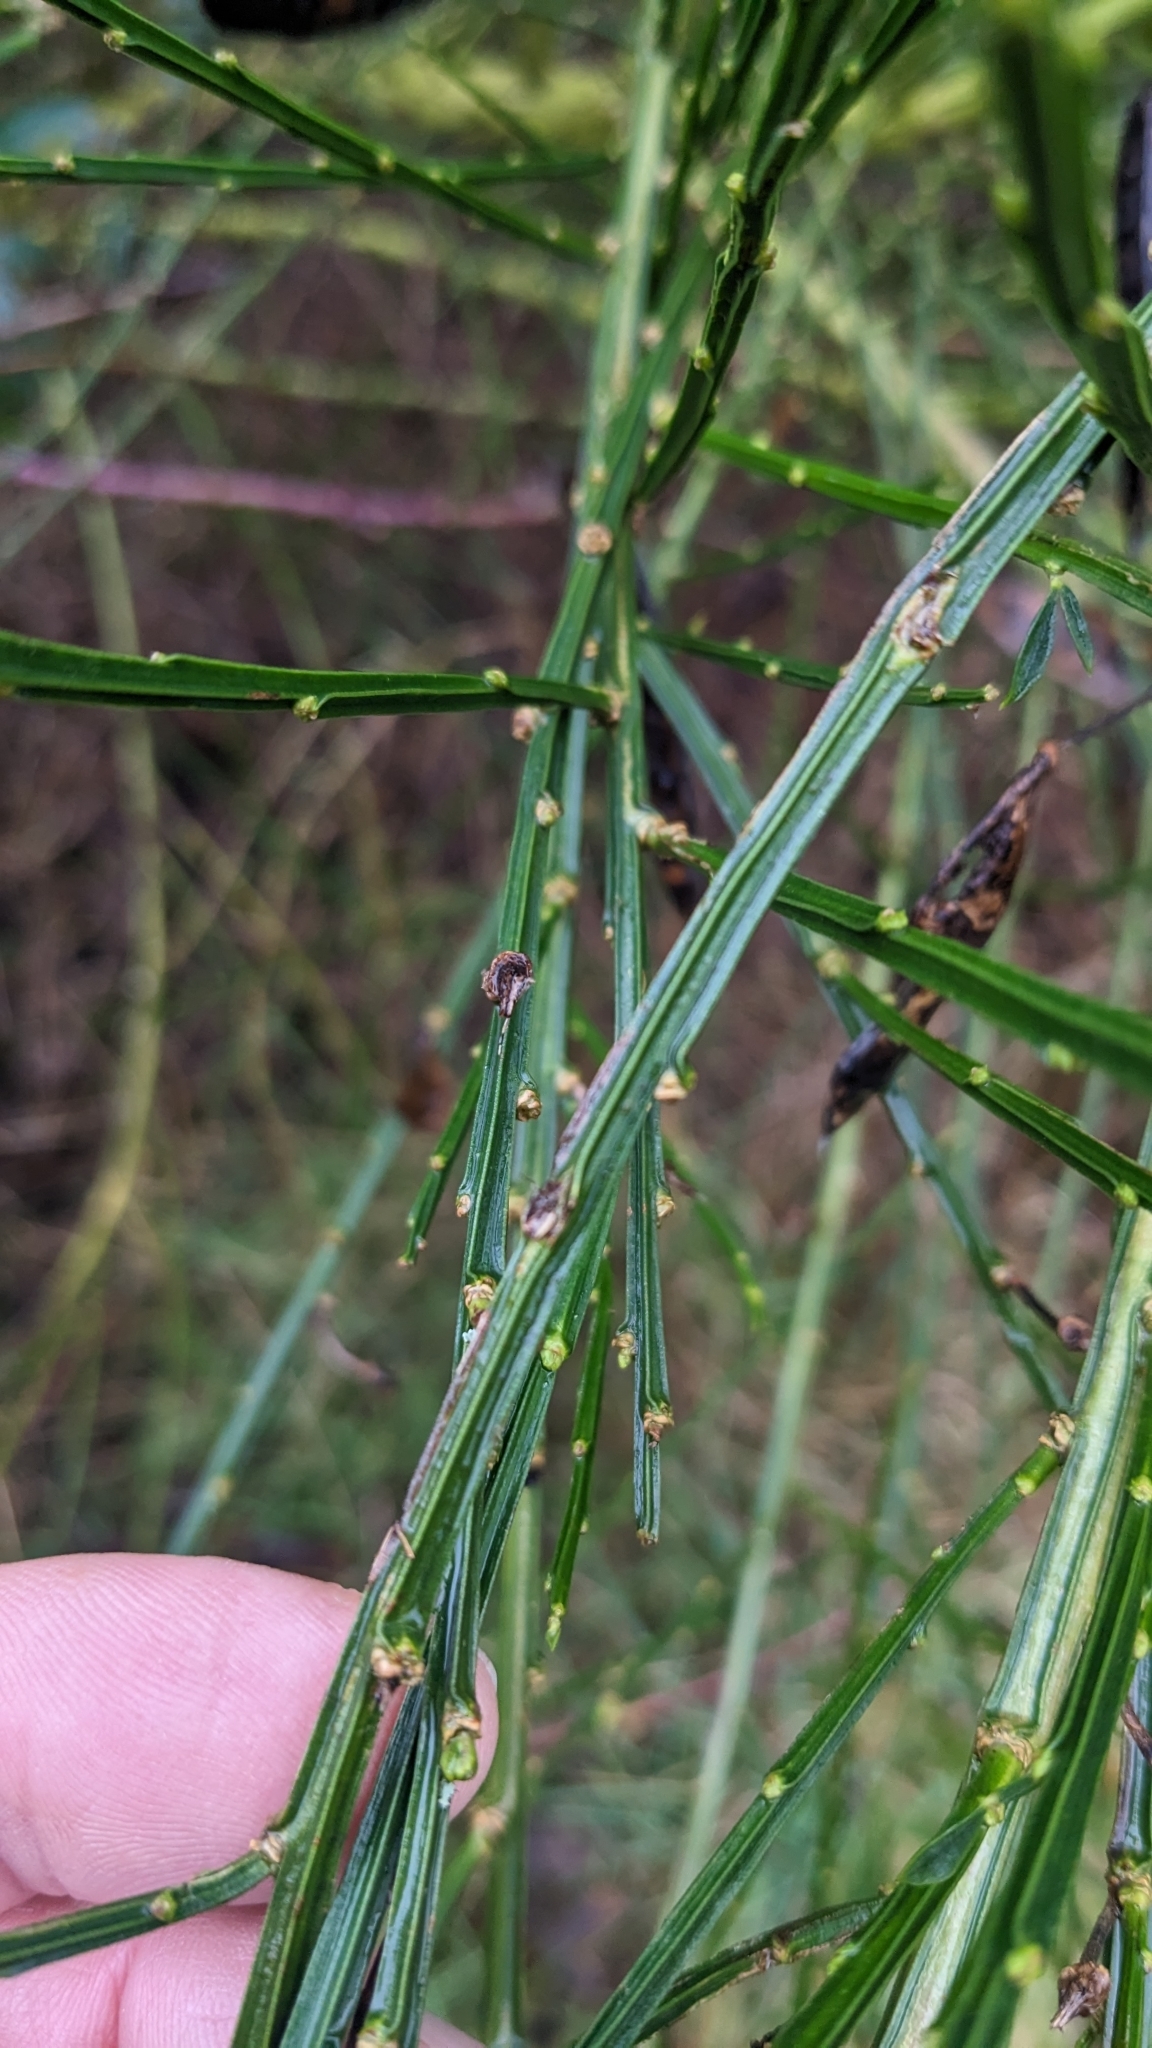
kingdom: Plantae
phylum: Tracheophyta
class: Magnoliopsida
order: Fabales
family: Fabaceae
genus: Cytisus
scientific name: Cytisus scoparius
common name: Scotch broom
